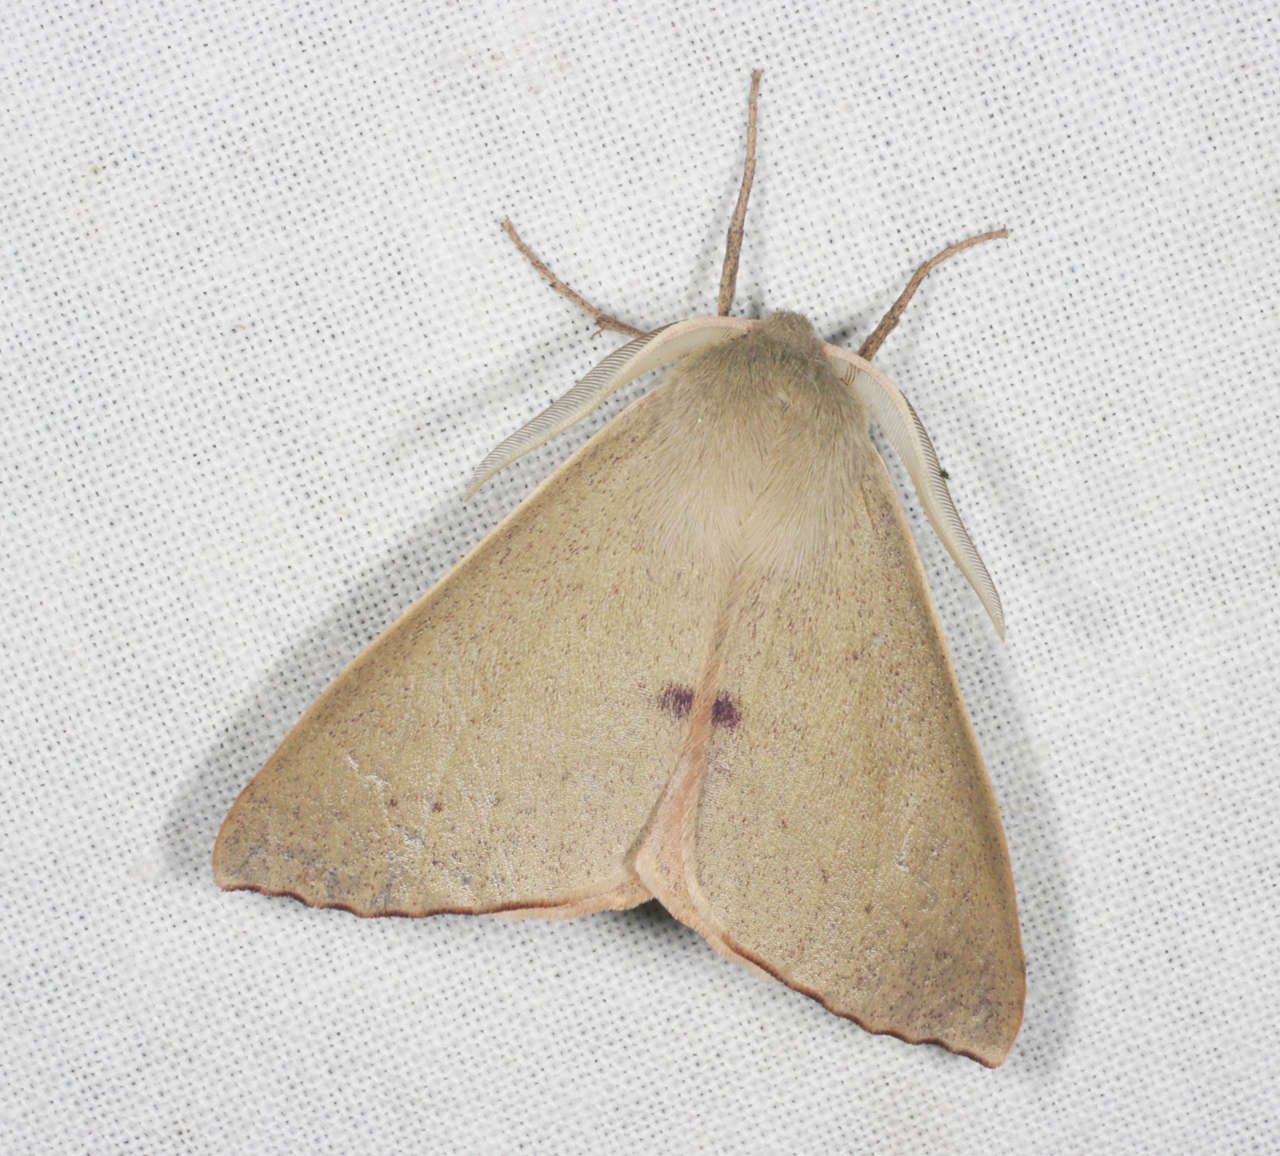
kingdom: Animalia
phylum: Arthropoda
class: Insecta
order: Lepidoptera
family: Geometridae
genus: Arhodia
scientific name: Arhodia lasiocamparia
